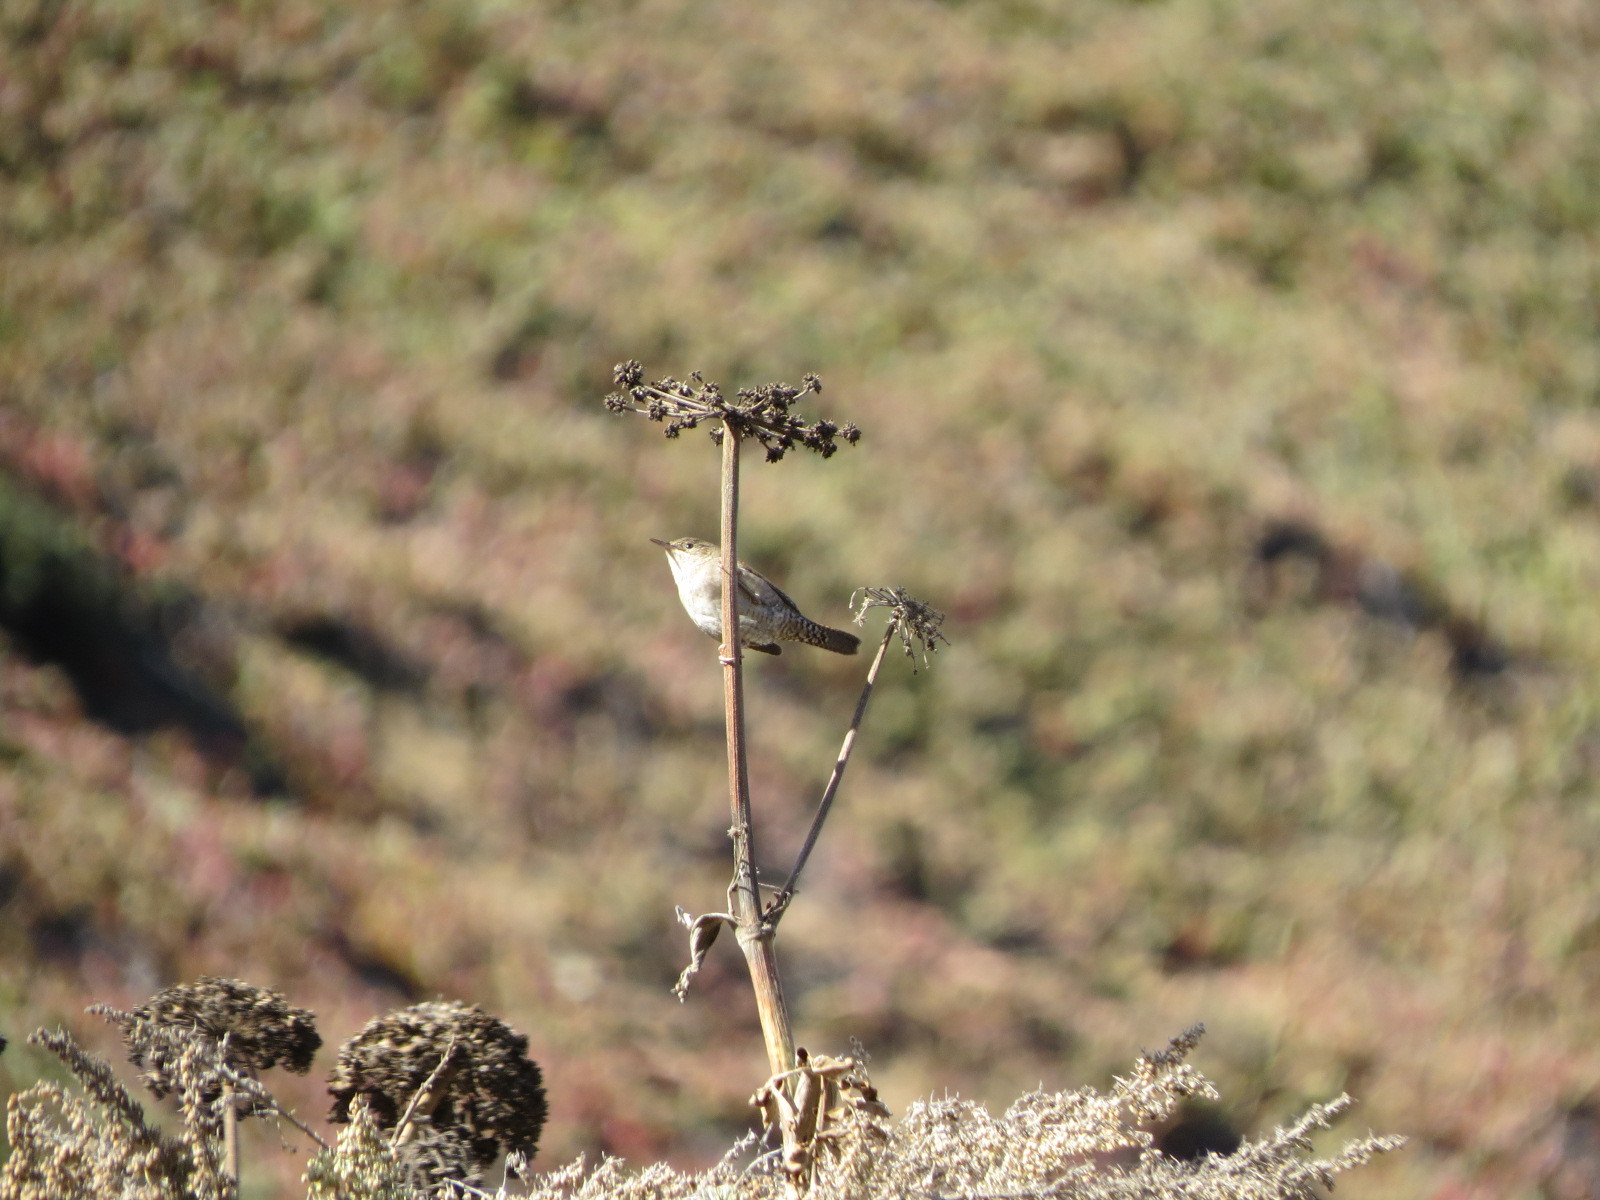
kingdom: Animalia
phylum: Chordata
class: Aves
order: Passeriformes
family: Troglodytidae
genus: Troglodytes
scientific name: Troglodytes aedon
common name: House wren
